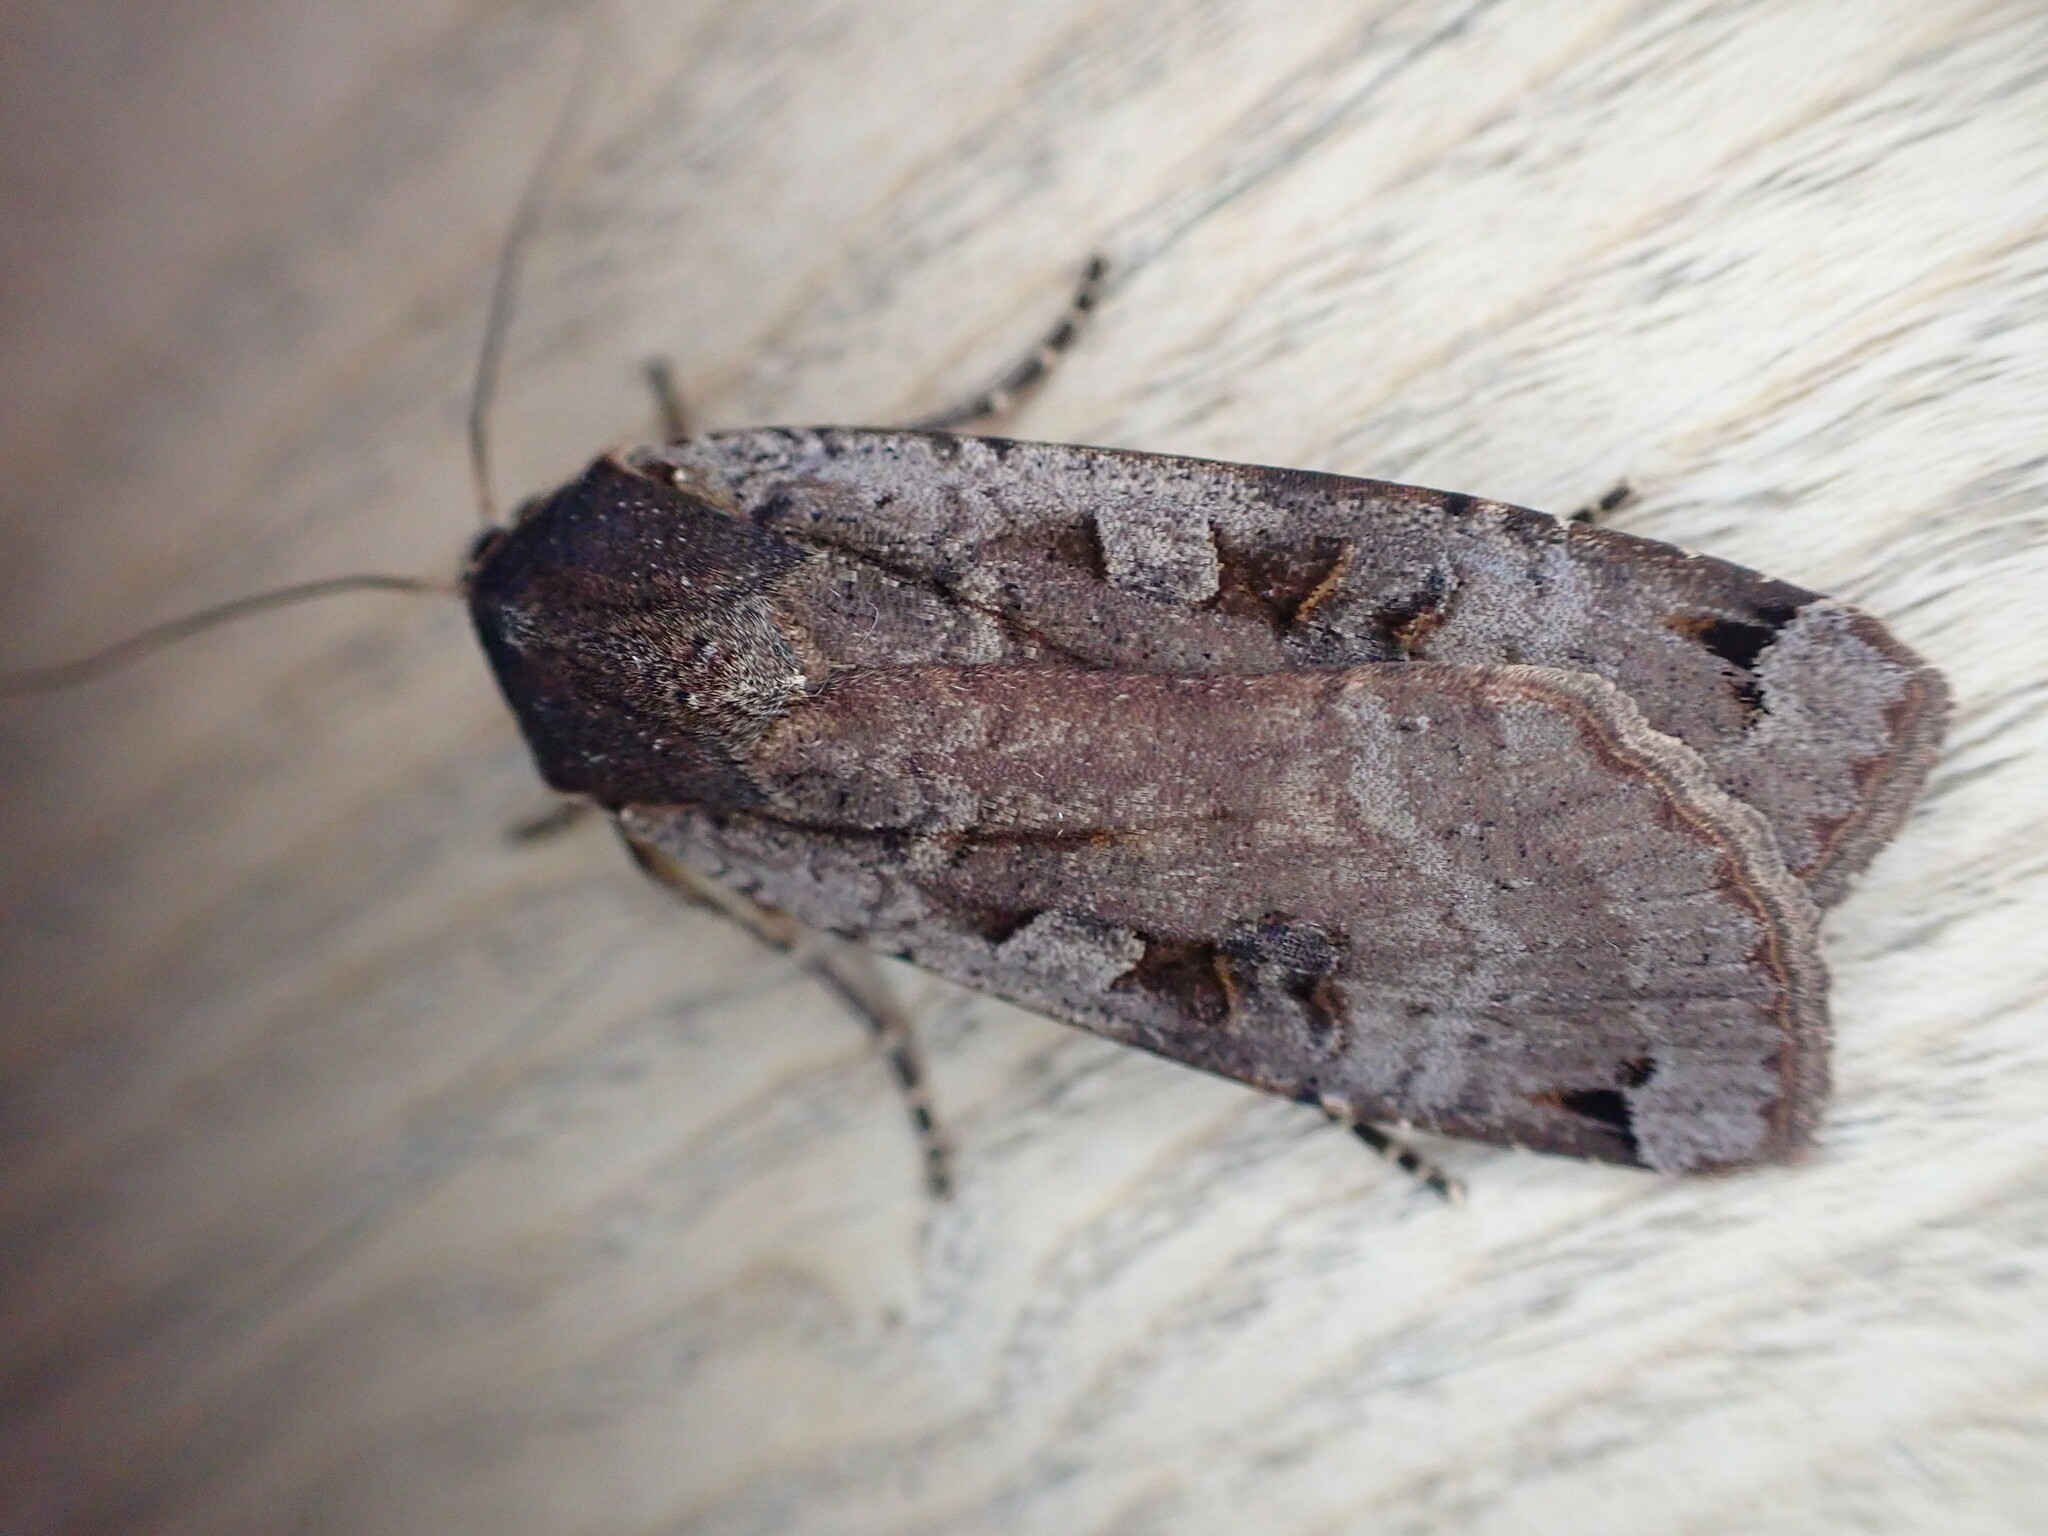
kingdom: Animalia
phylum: Arthropoda
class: Insecta
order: Lepidoptera
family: Noctuidae
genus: Noctua
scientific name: Noctua pronuba
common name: Large yellow underwing
